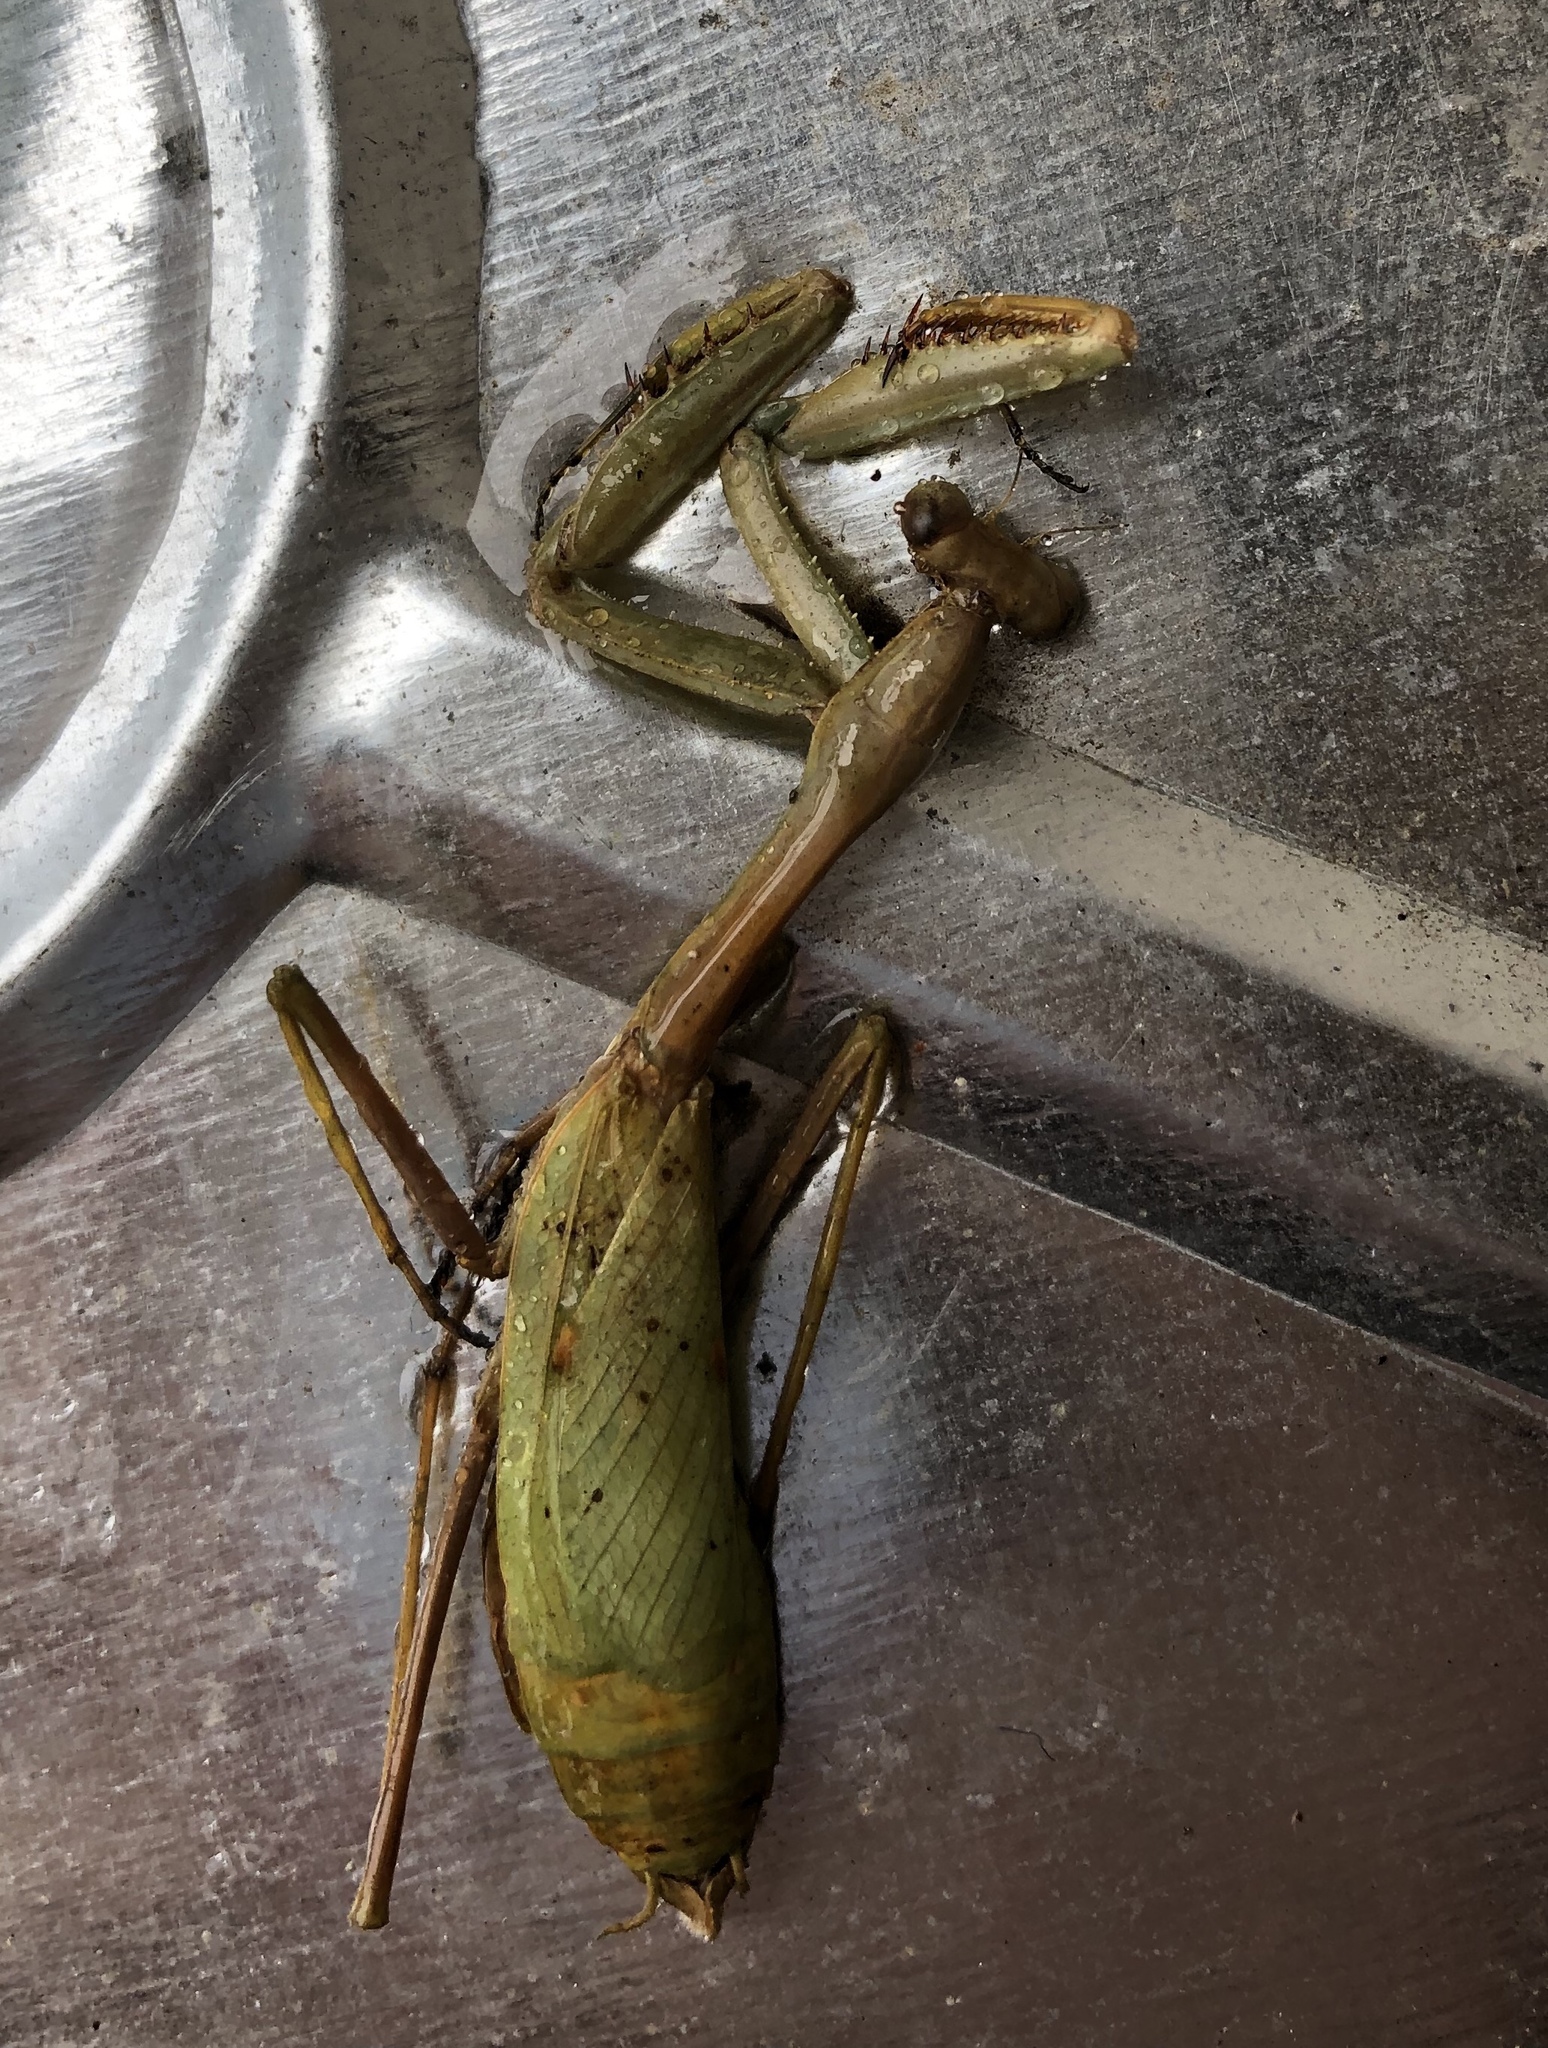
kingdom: Animalia
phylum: Arthropoda
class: Insecta
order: Mantodea
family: Mantidae
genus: Stagmomantis
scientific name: Stagmomantis californica
